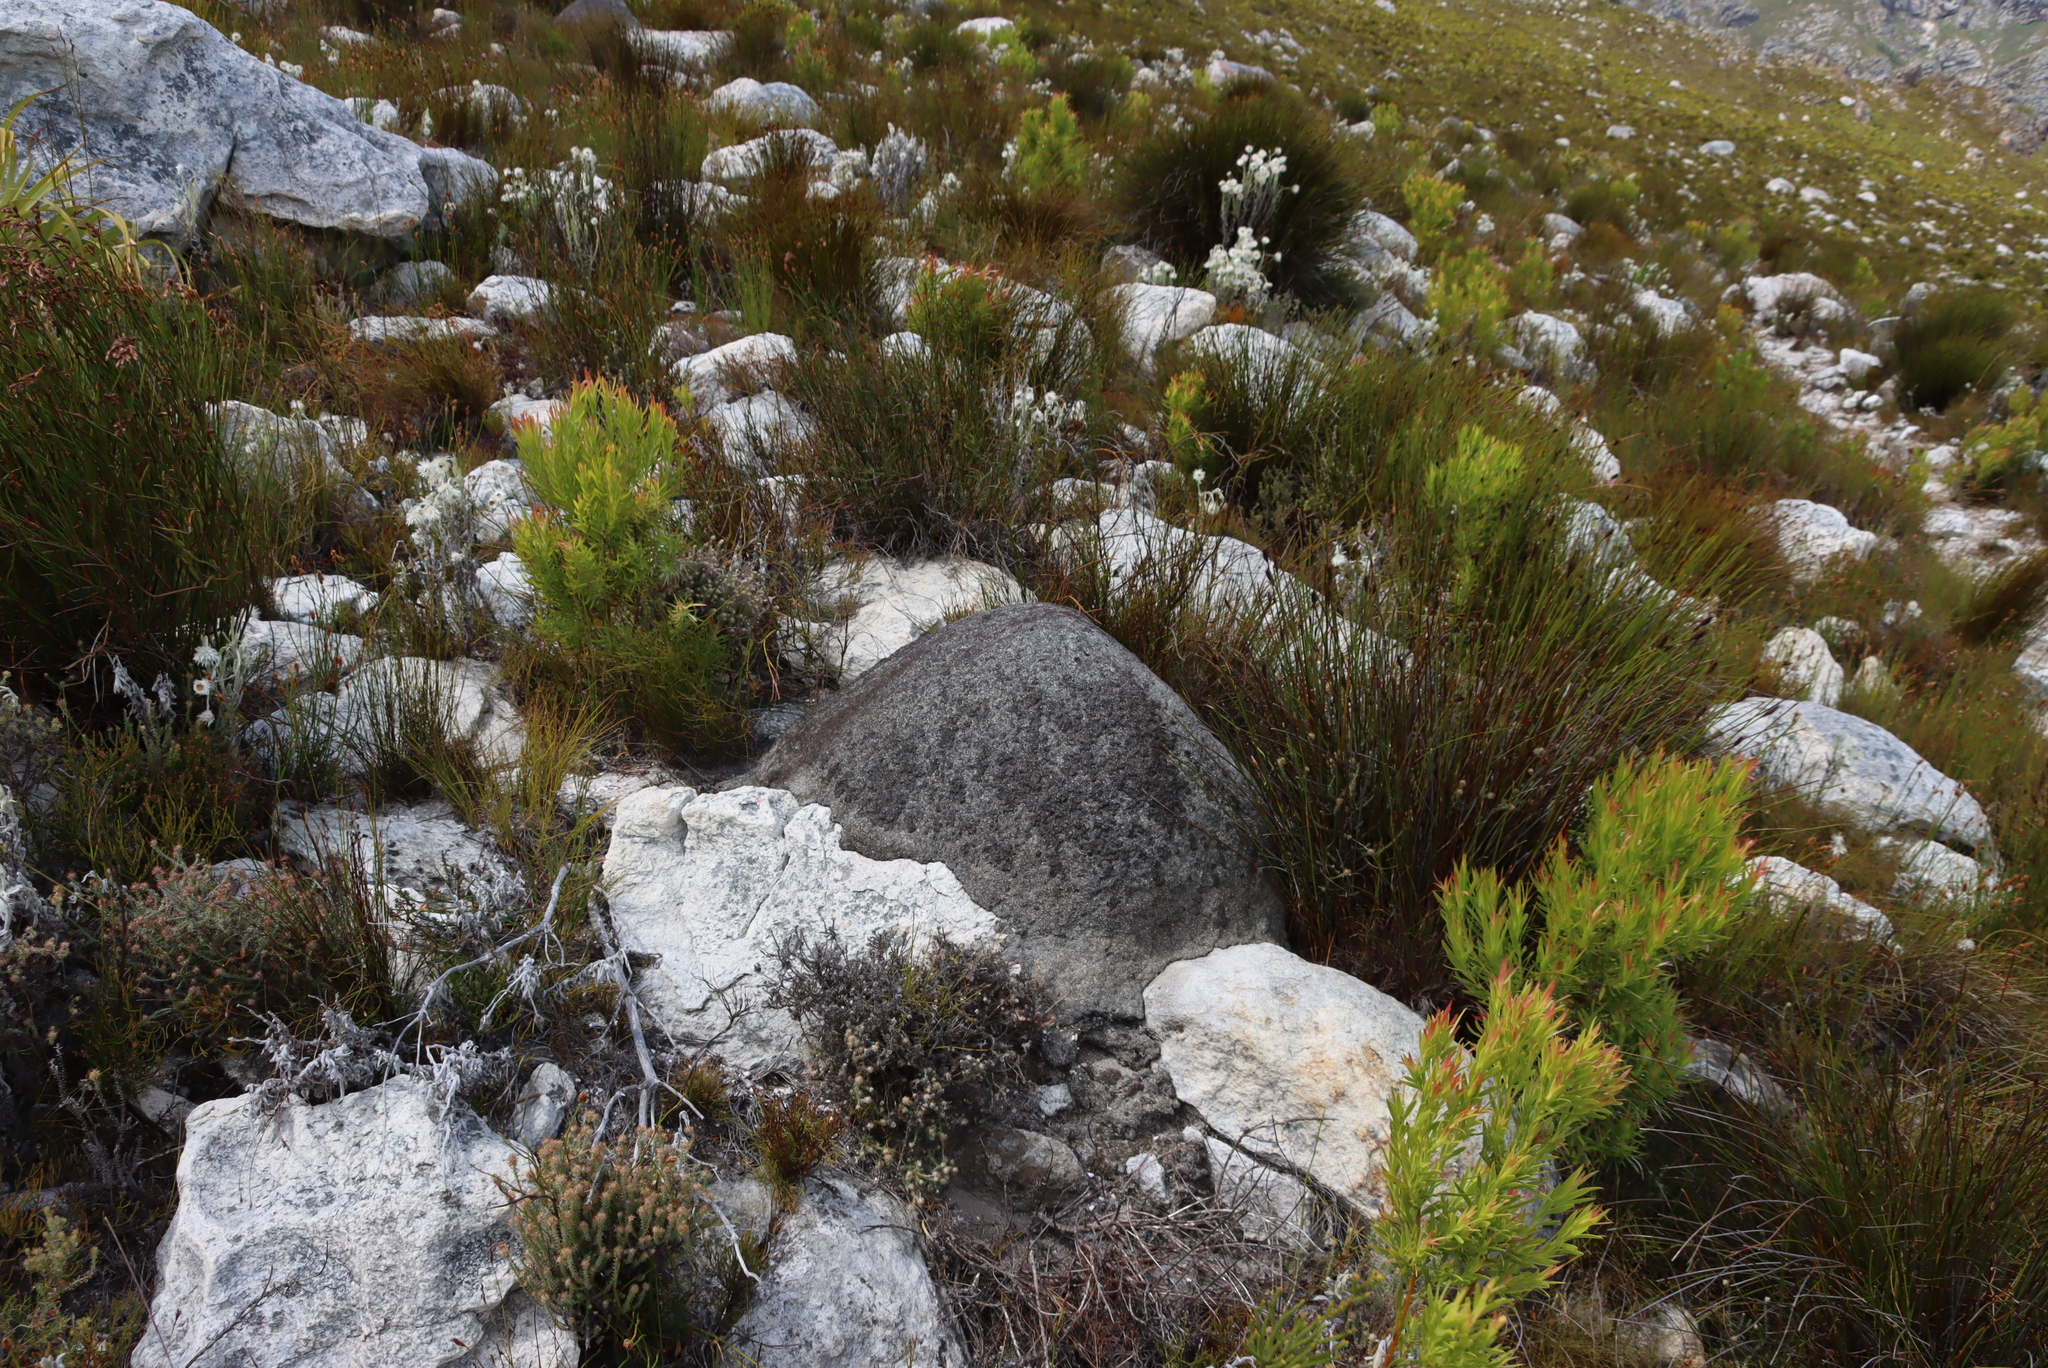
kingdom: Animalia
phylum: Arthropoda
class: Insecta
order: Blattodea
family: Termitidae
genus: Amitermes
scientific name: Amitermes hastatus
